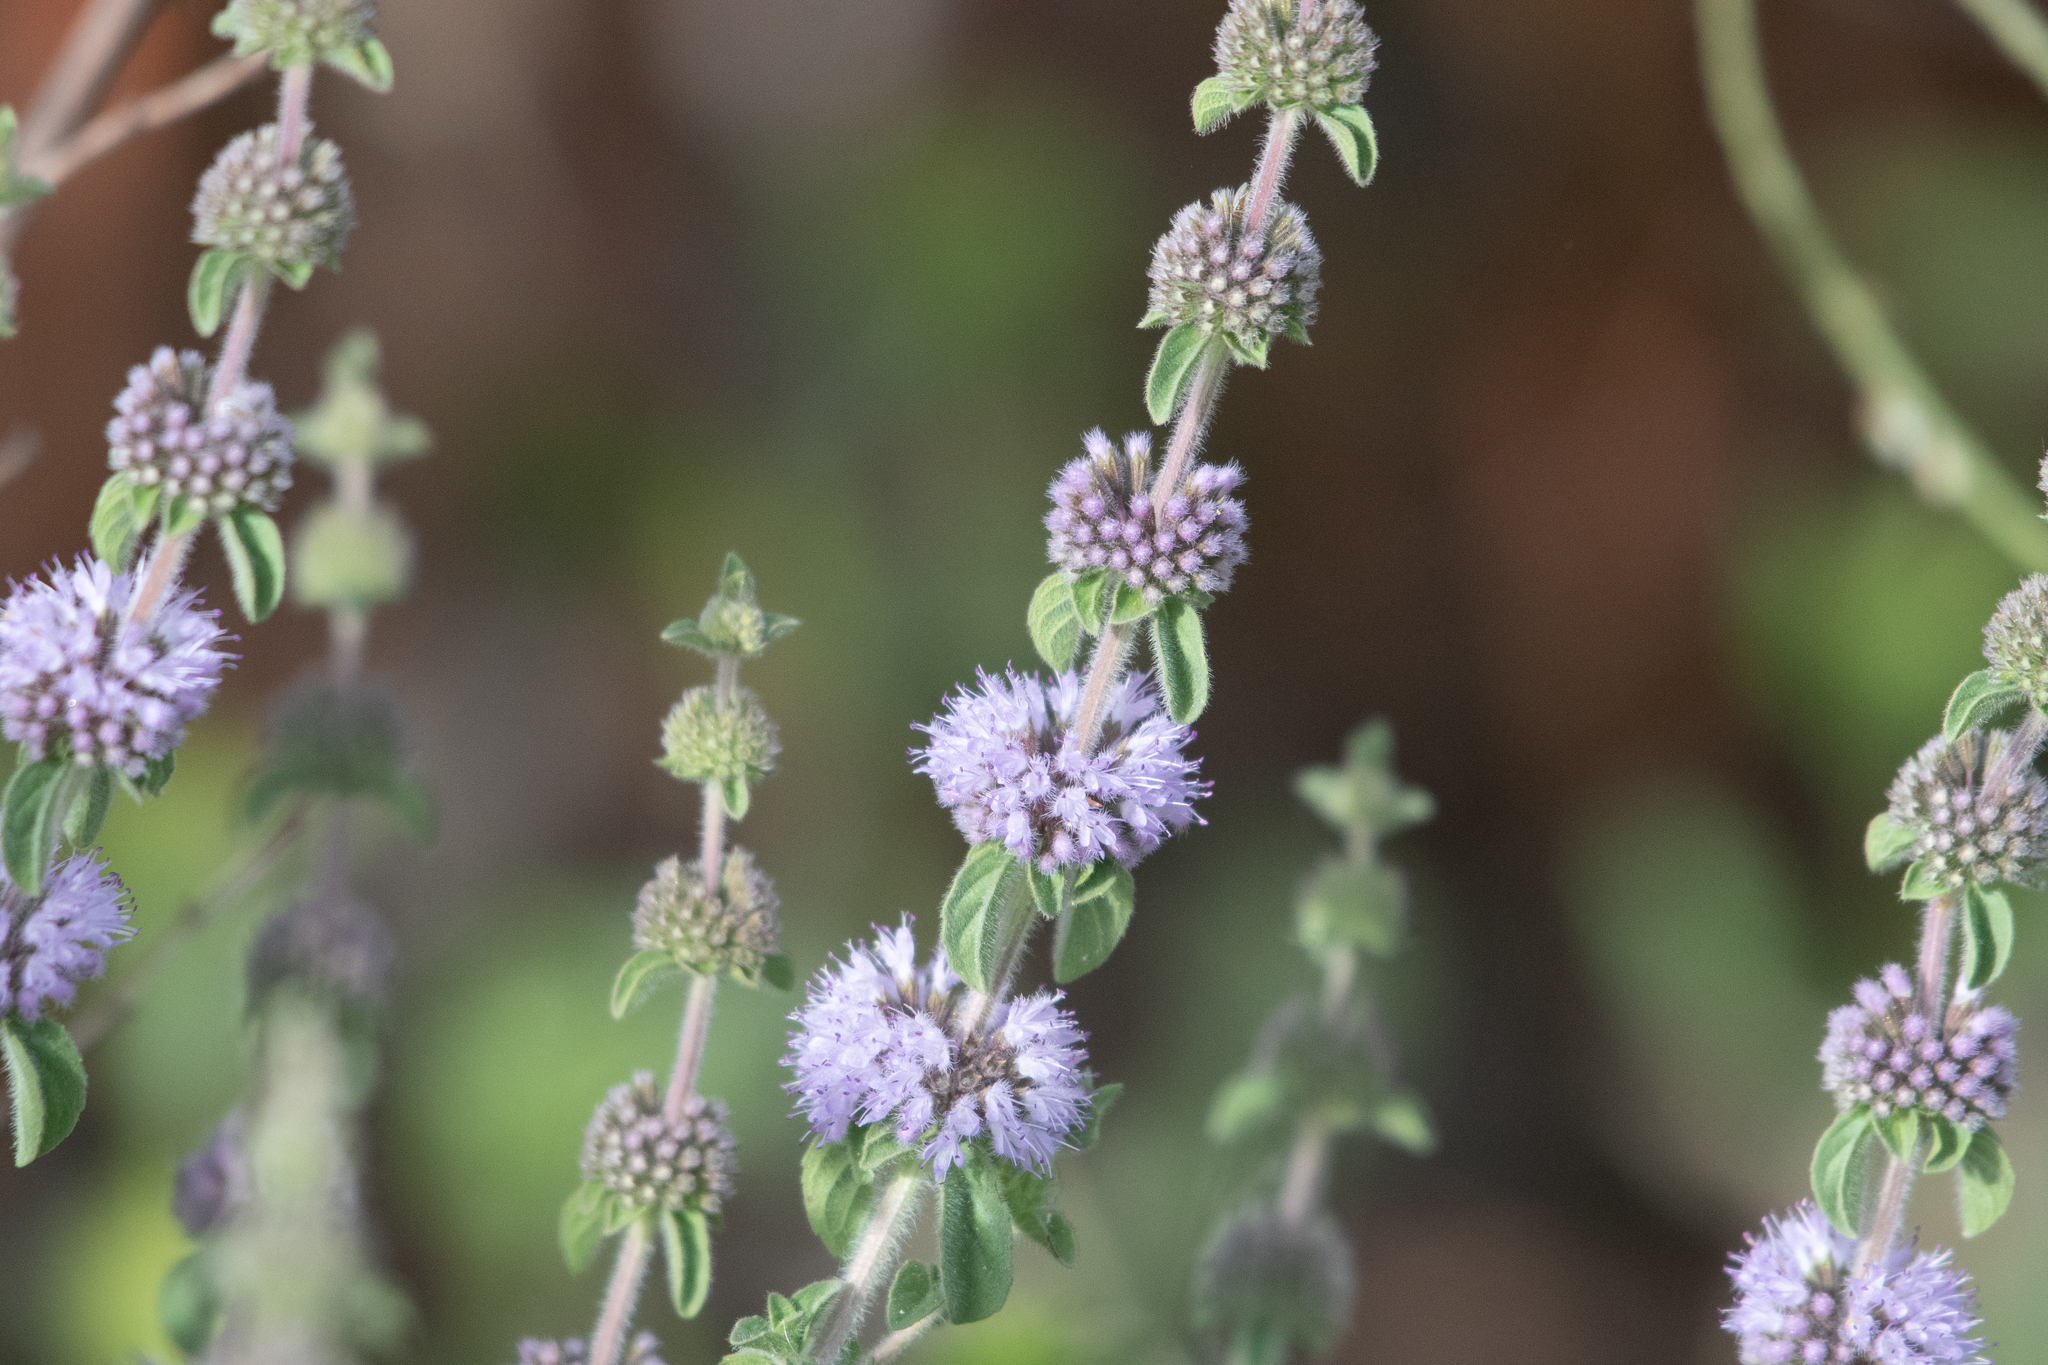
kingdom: Plantae
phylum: Tracheophyta
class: Magnoliopsida
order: Lamiales
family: Lamiaceae
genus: Mentha
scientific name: Mentha pulegium
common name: Pennyroyal
